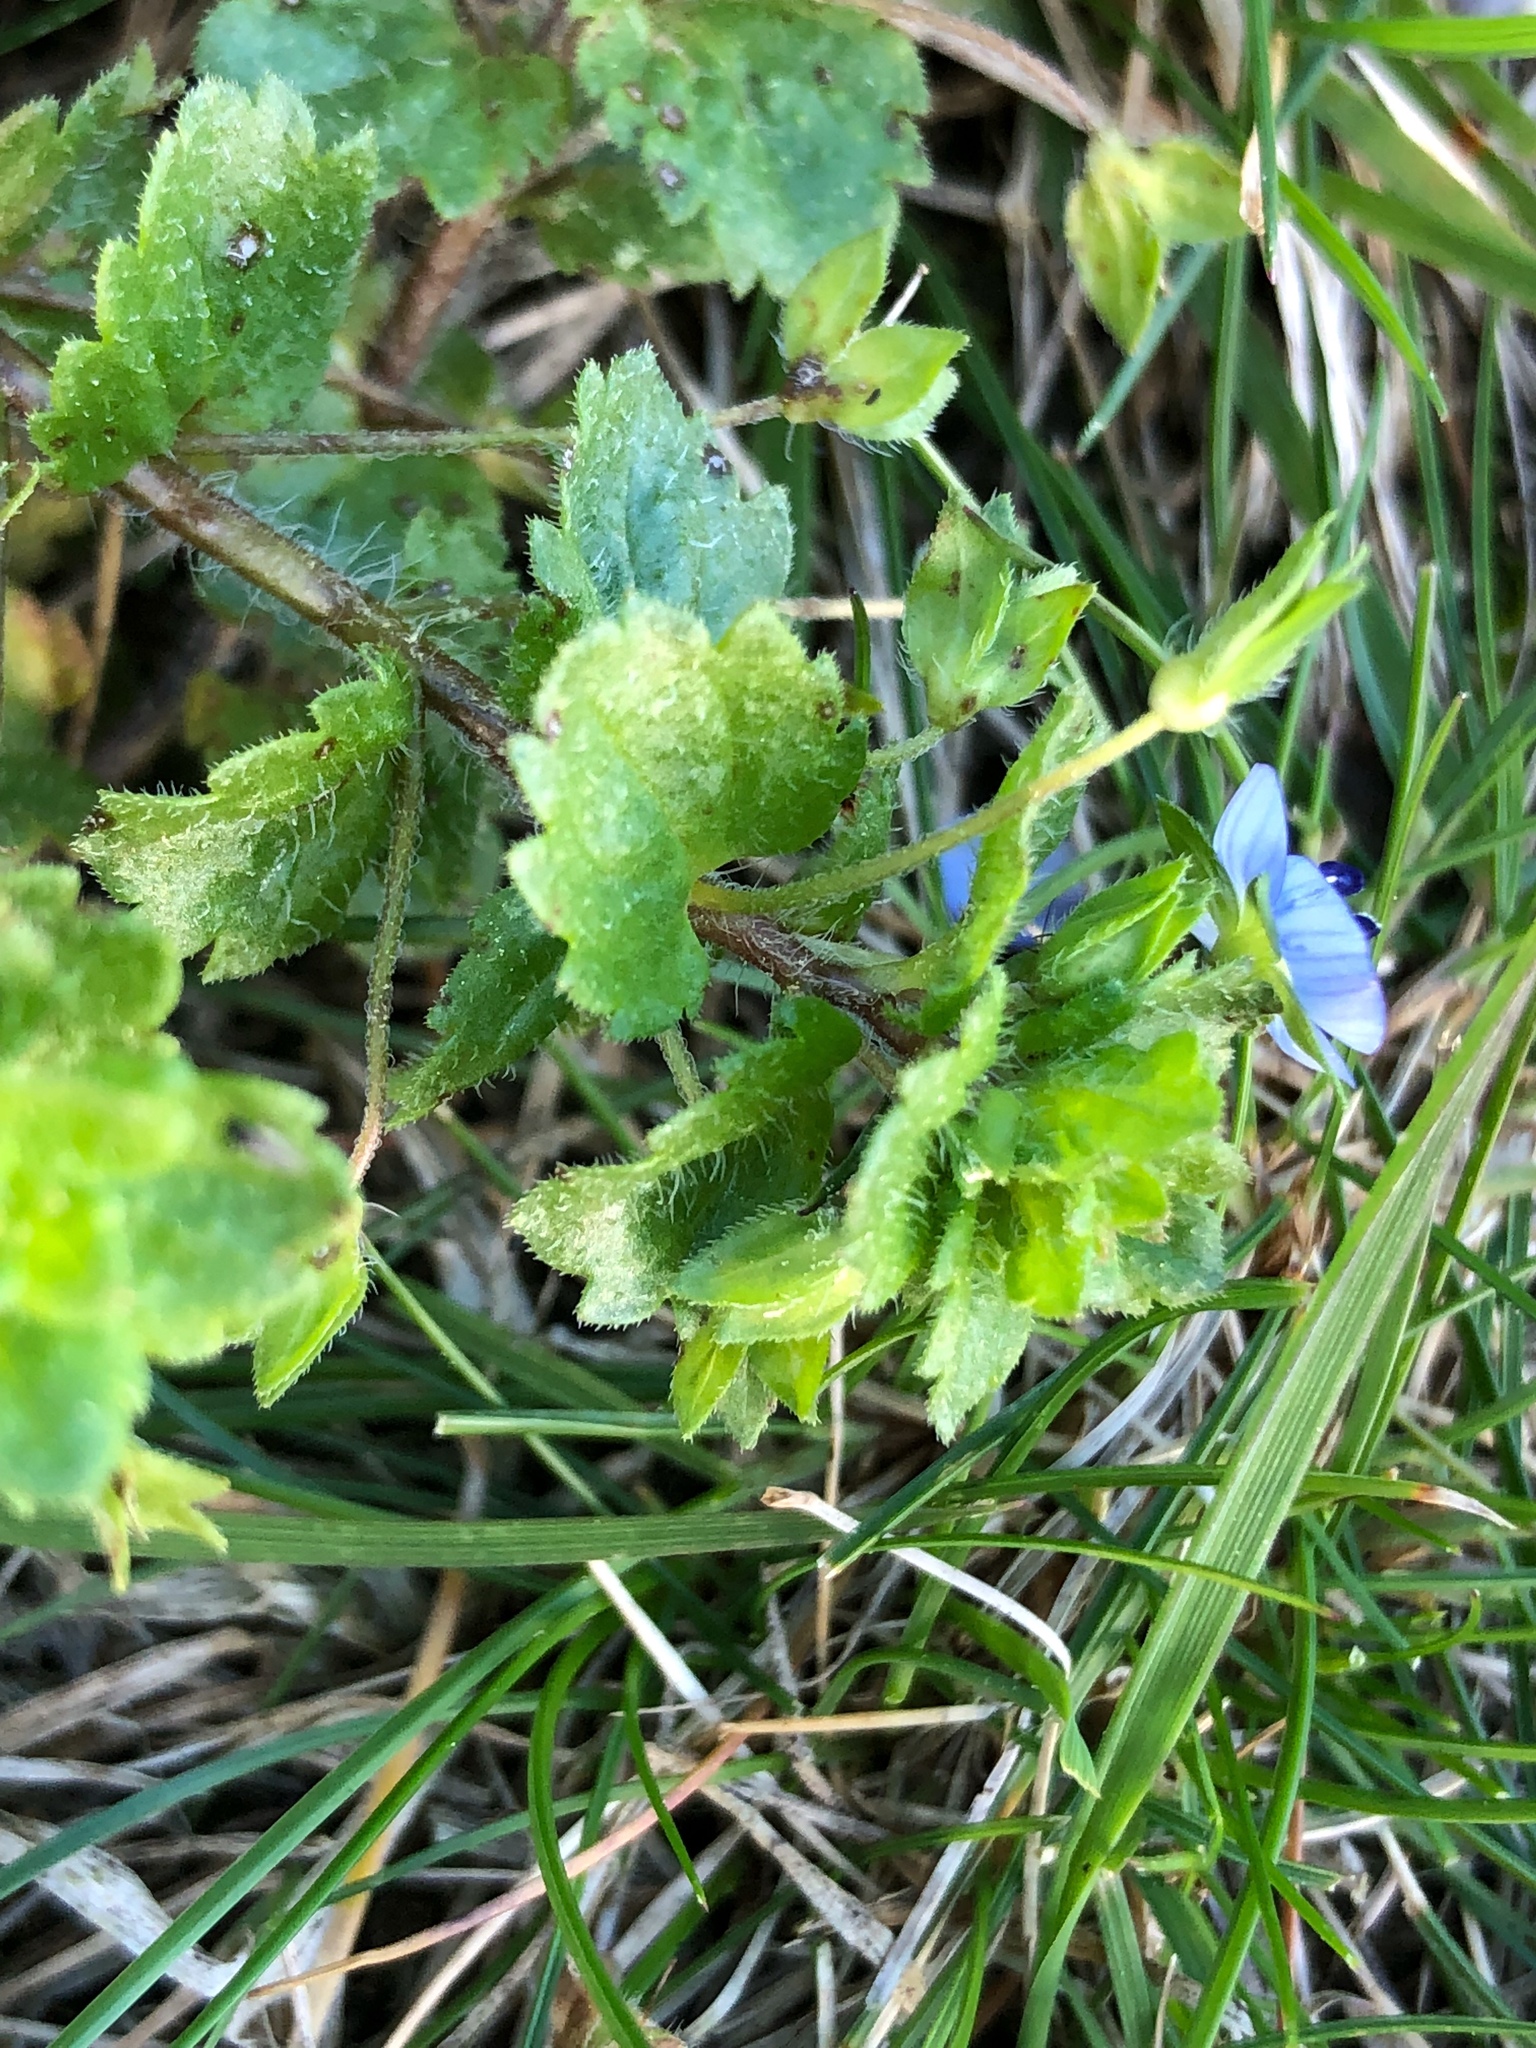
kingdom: Plantae
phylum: Tracheophyta
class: Magnoliopsida
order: Lamiales
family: Plantaginaceae
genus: Veronica
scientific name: Veronica persica
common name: Common field-speedwell
